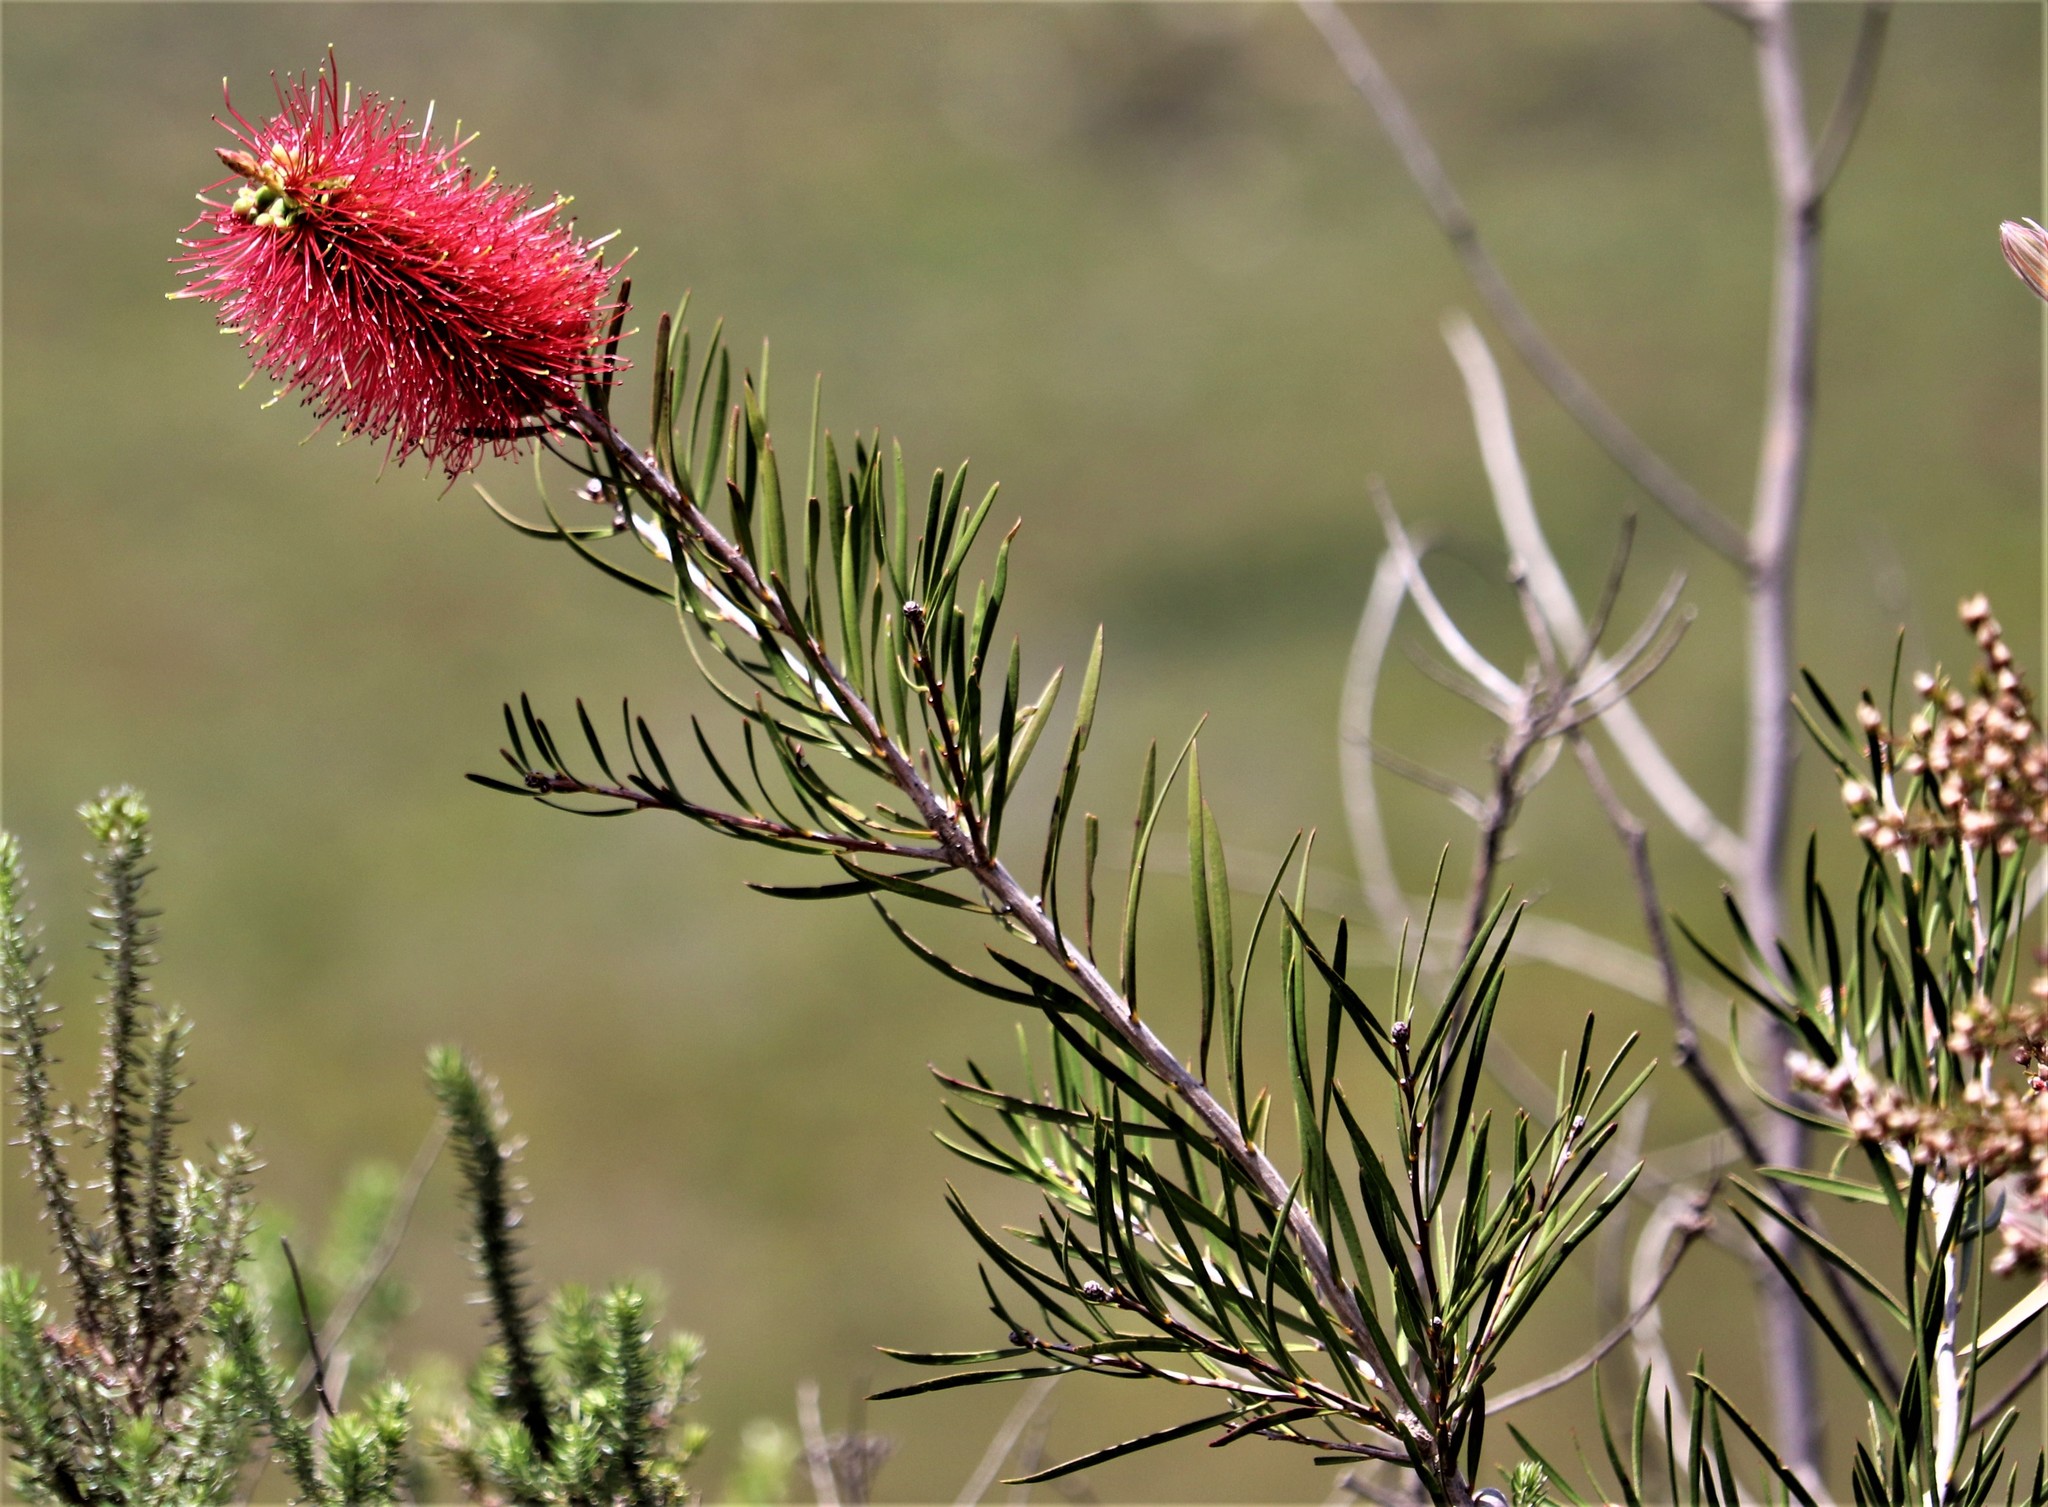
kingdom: Plantae
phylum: Tracheophyta
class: Magnoliopsida
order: Myrtales
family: Myrtaceae
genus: Callistemon
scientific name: Callistemon linearis
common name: Narrow-leaf bottlebrush
